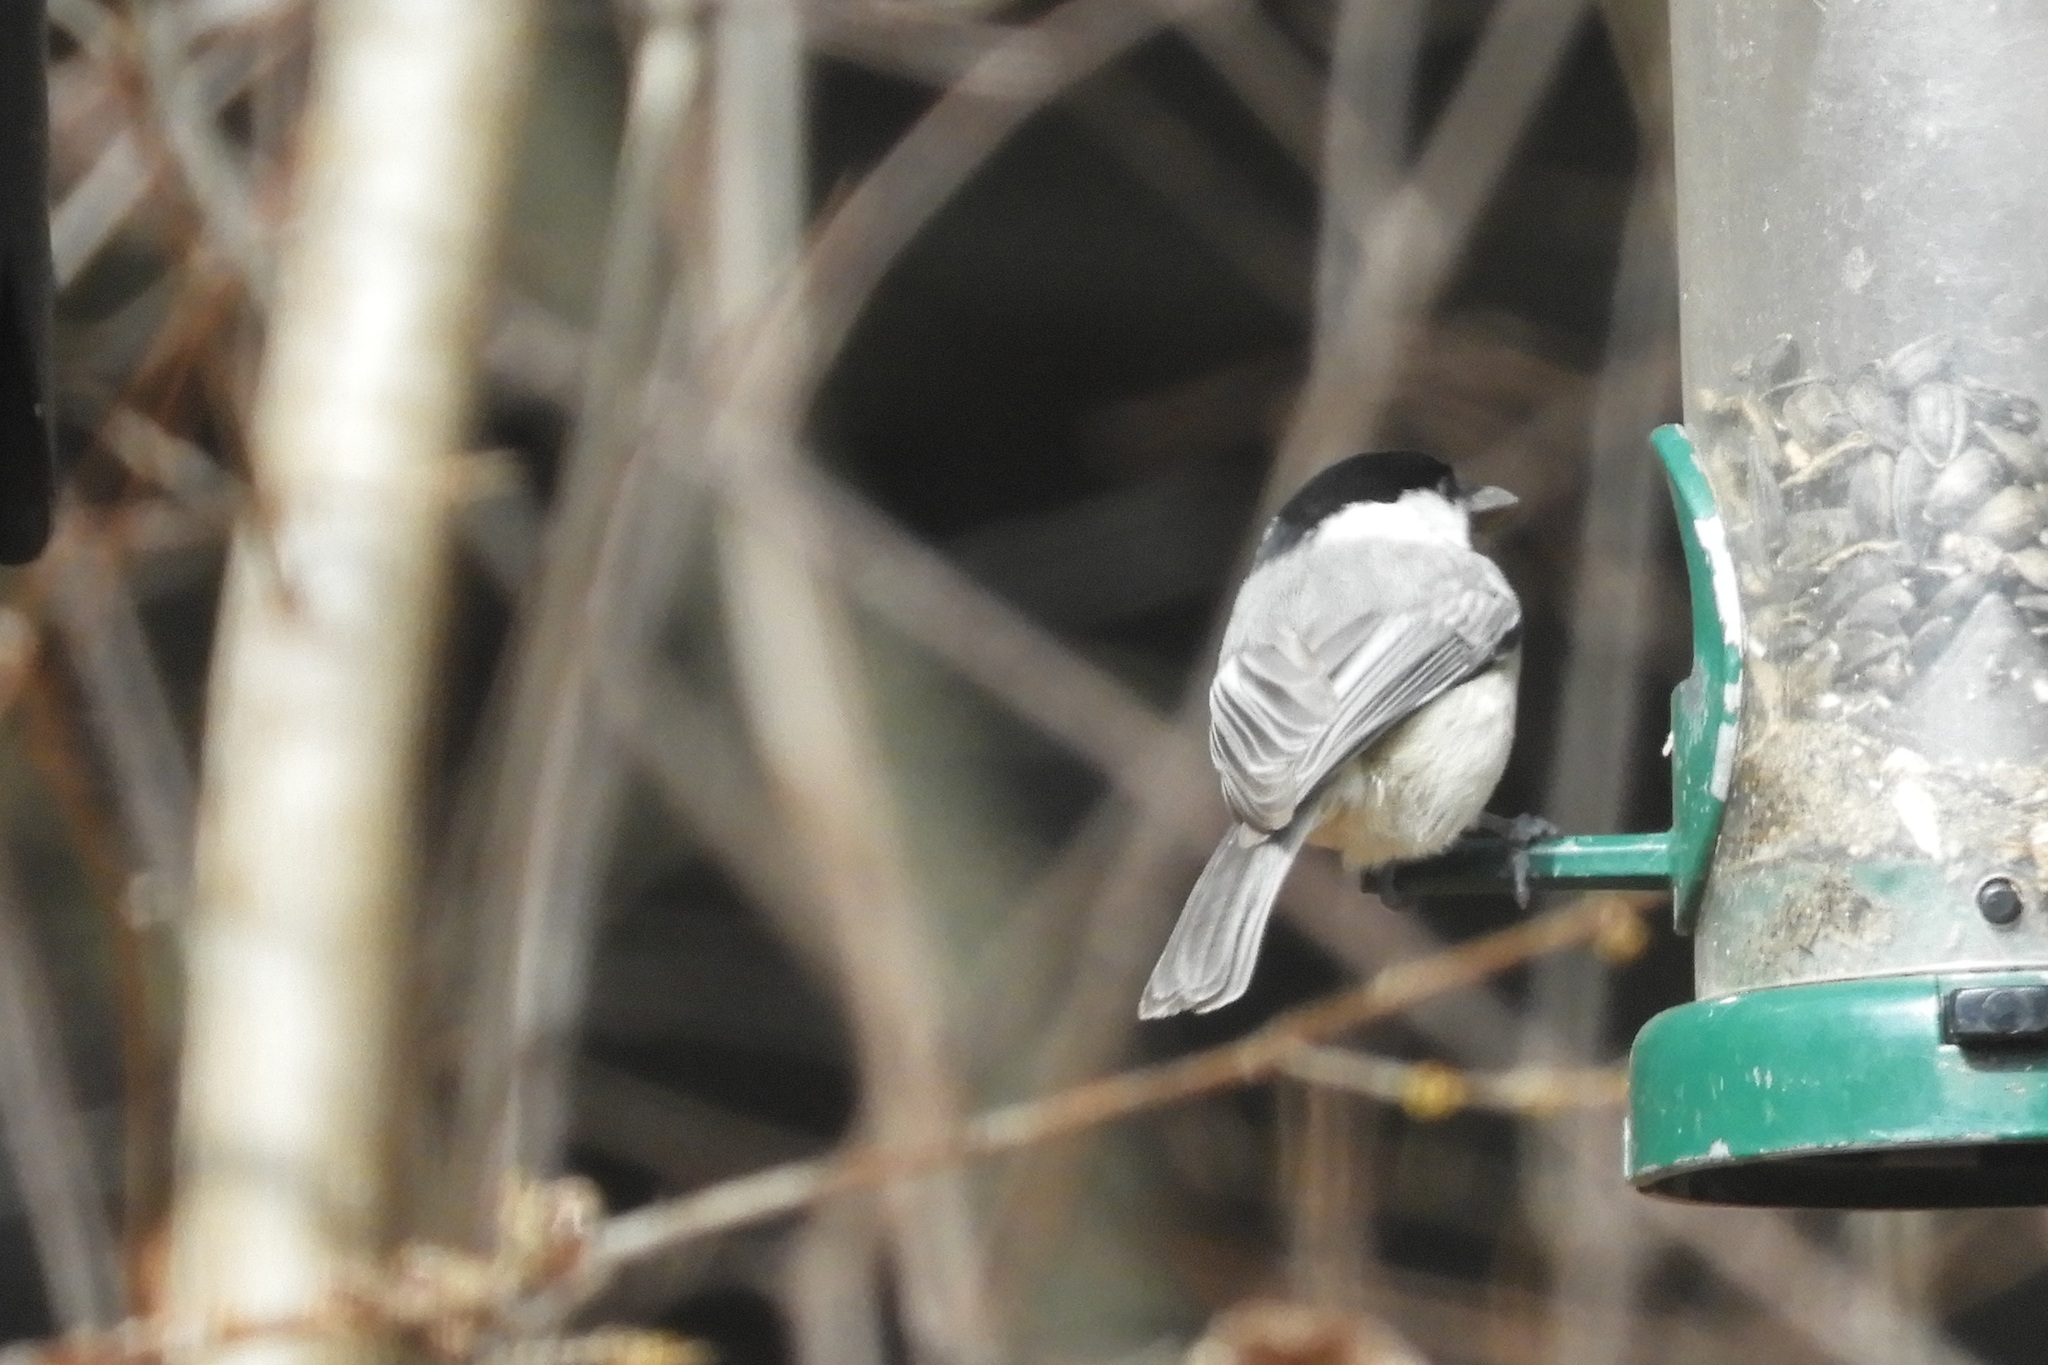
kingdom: Animalia
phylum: Chordata
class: Aves
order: Passeriformes
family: Paridae
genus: Poecile
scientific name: Poecile carolinensis
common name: Carolina chickadee
